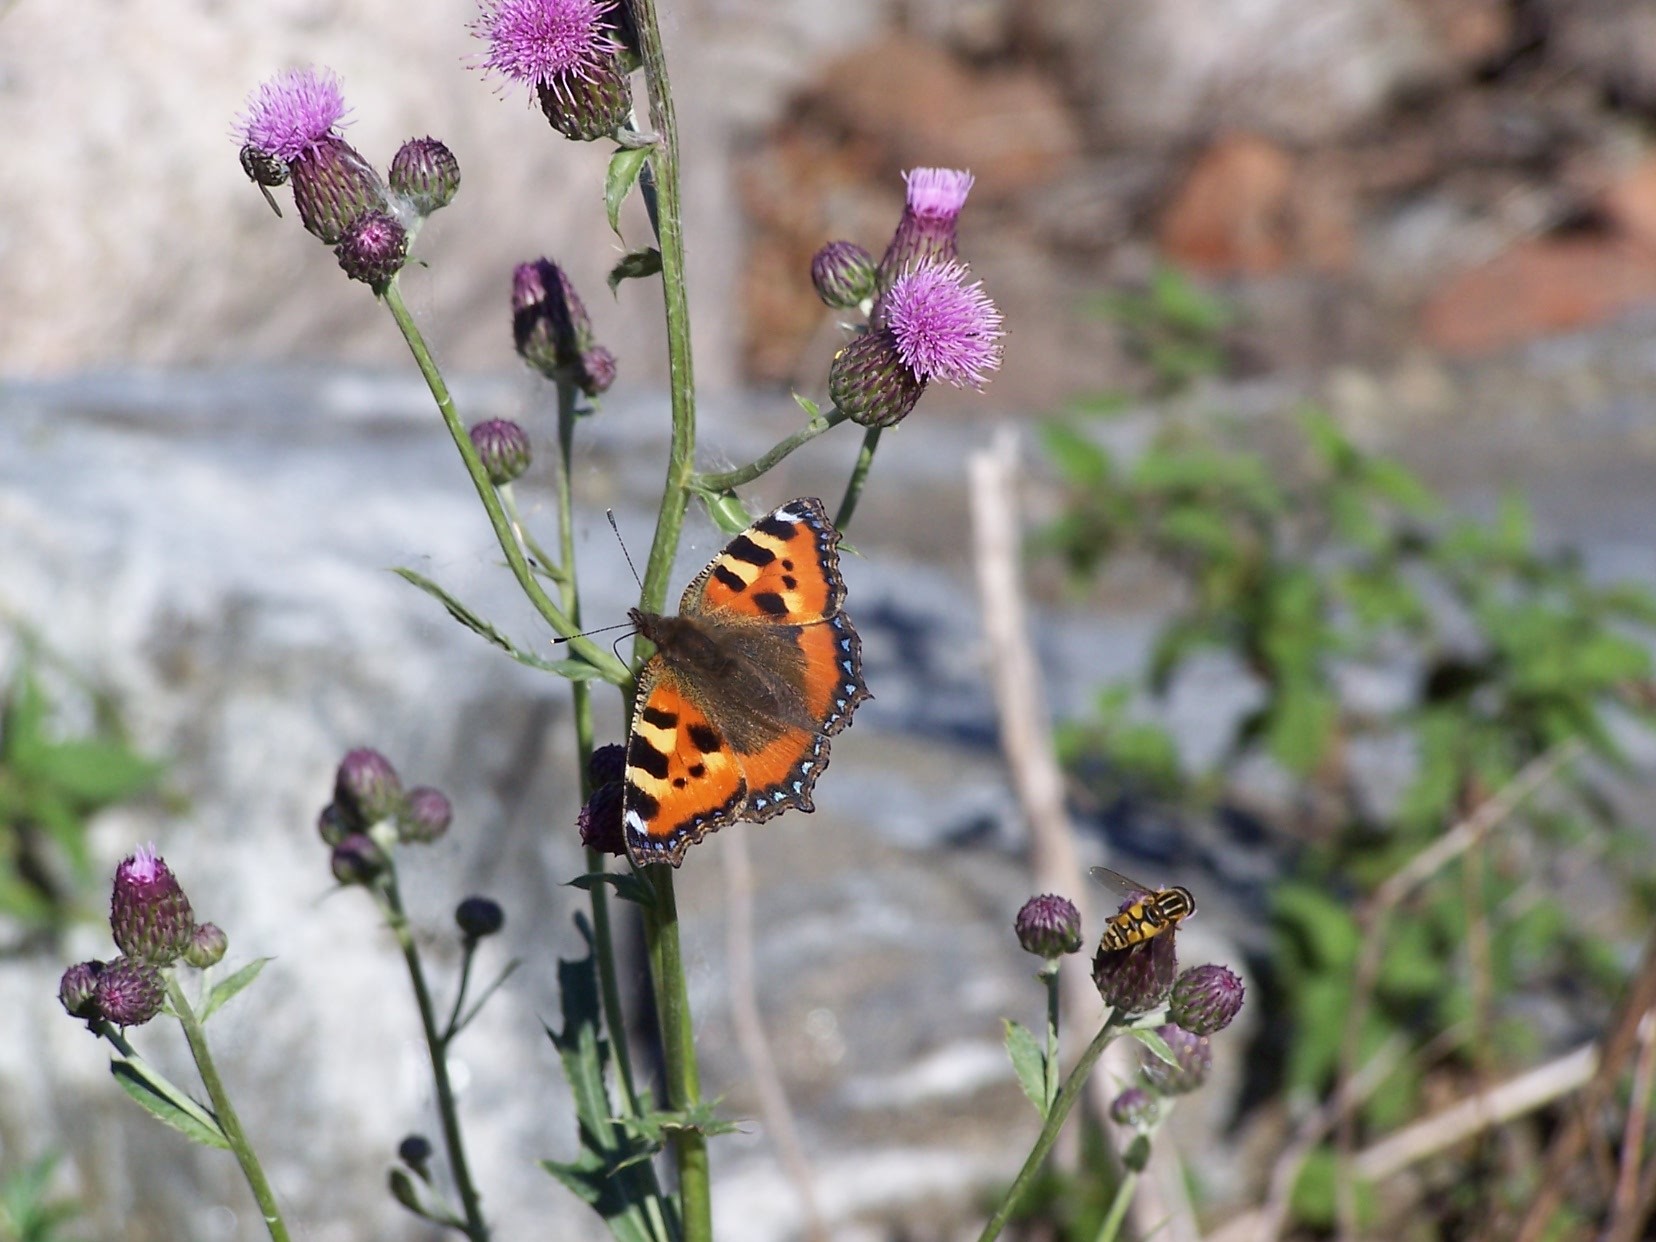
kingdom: Animalia
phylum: Arthropoda
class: Insecta
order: Lepidoptera
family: Nymphalidae
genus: Aglais
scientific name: Aglais urticae
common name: Small tortoiseshell
